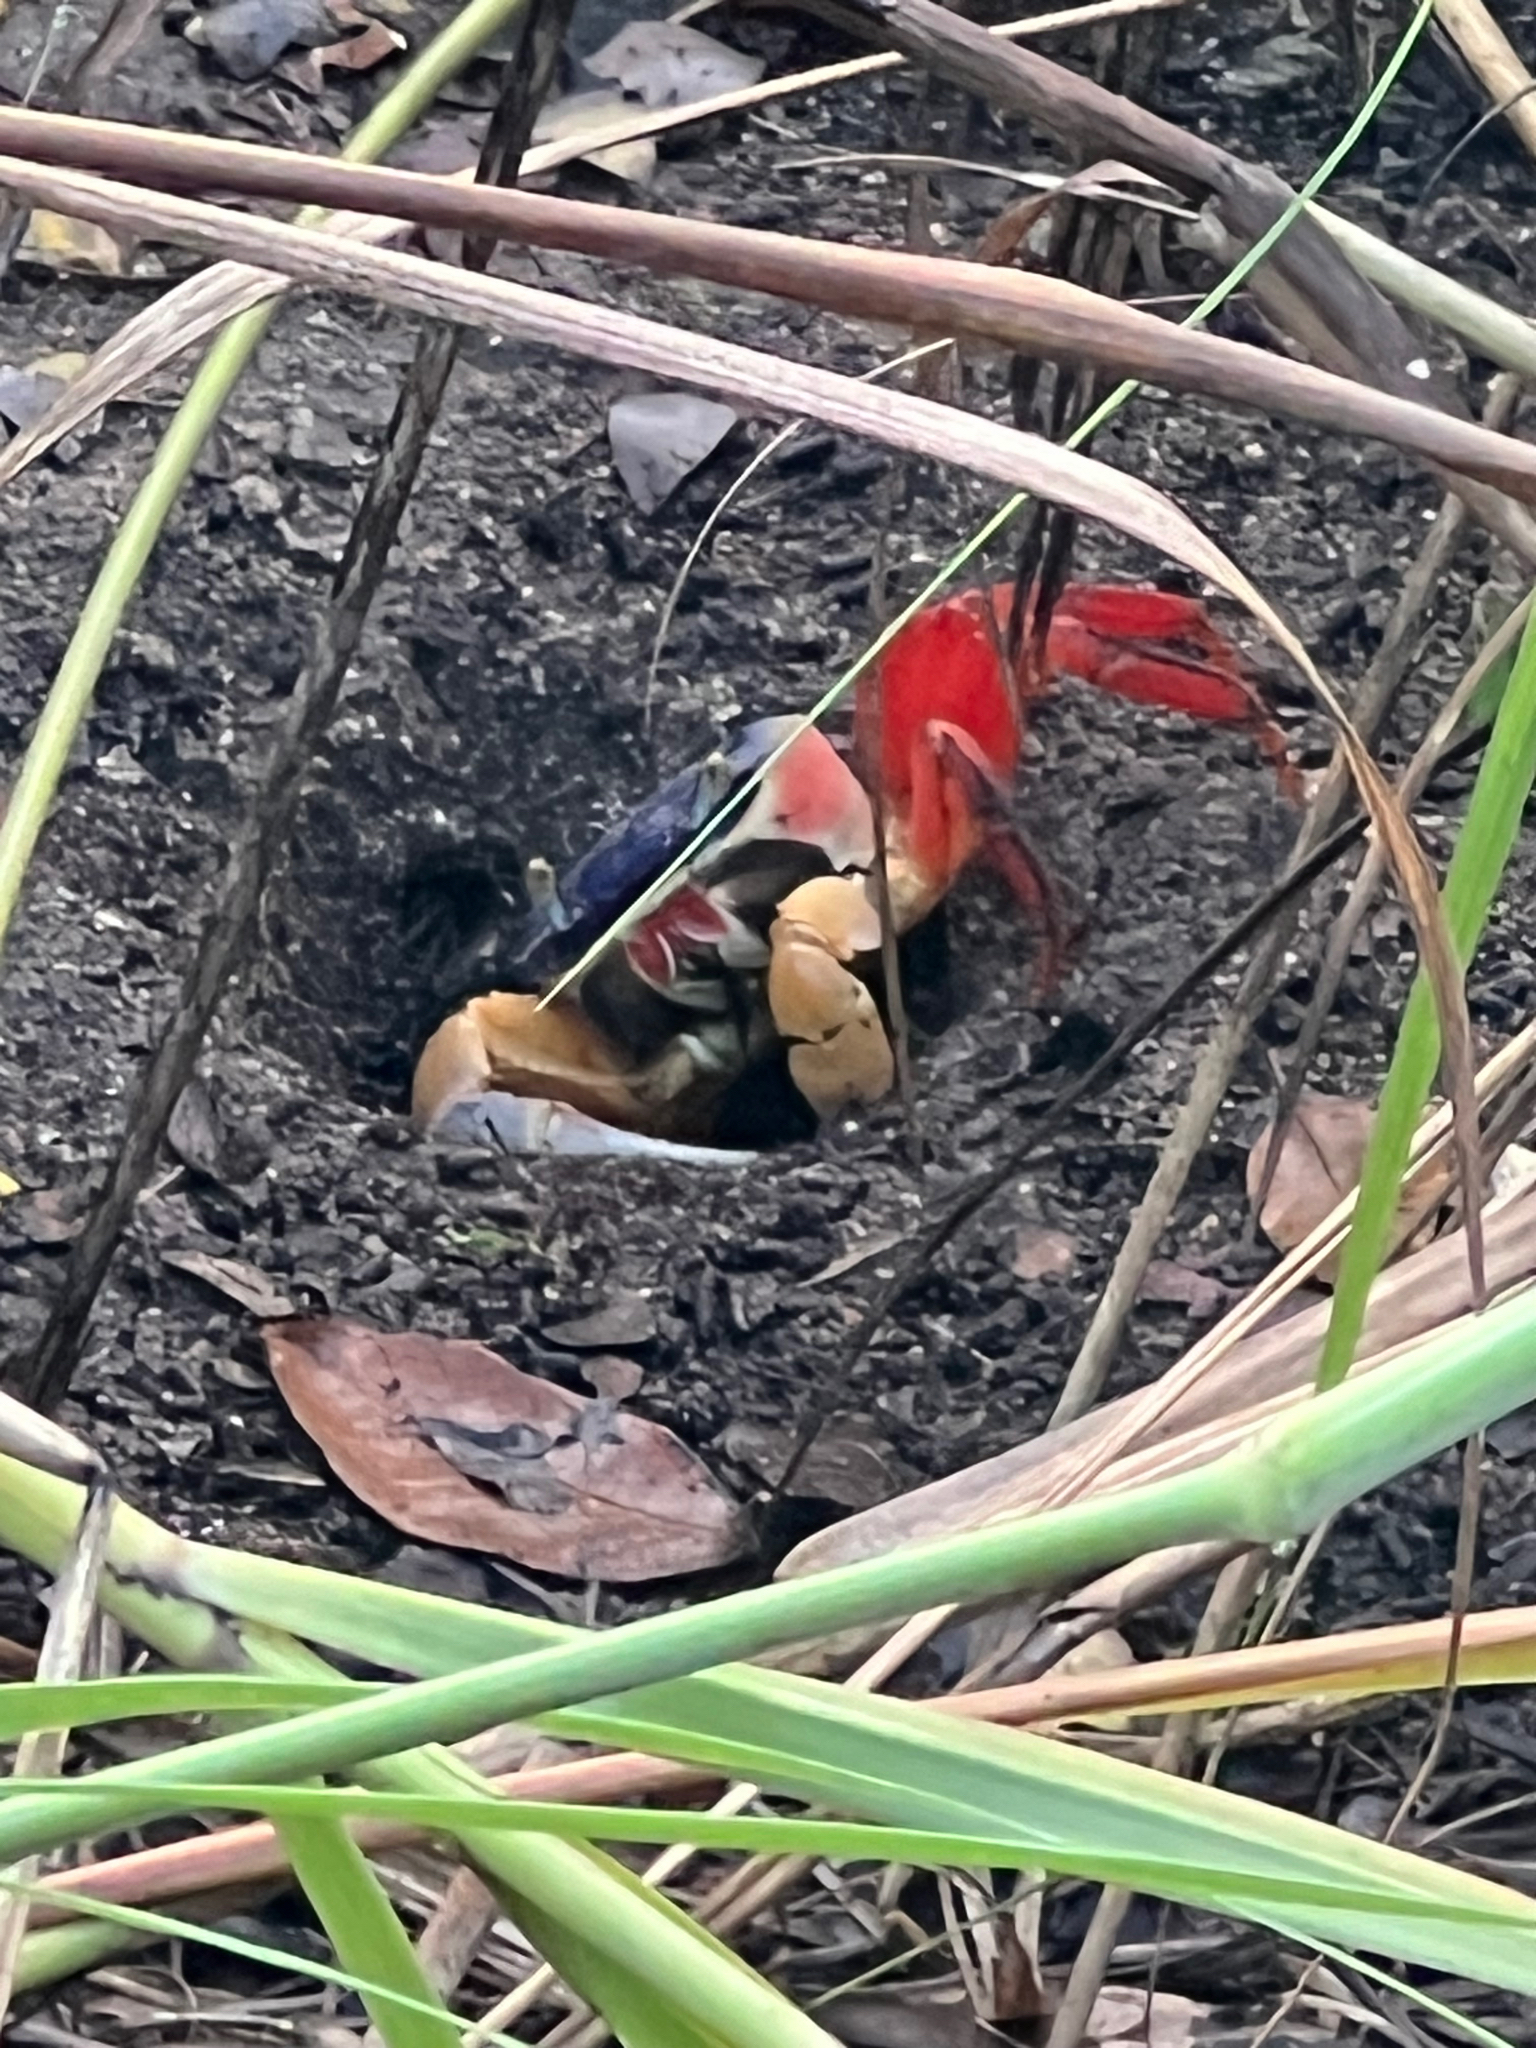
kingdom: Animalia
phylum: Arthropoda
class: Malacostraca
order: Decapoda
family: Gecarcinidae
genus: Cardisoma
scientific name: Cardisoma crassum
